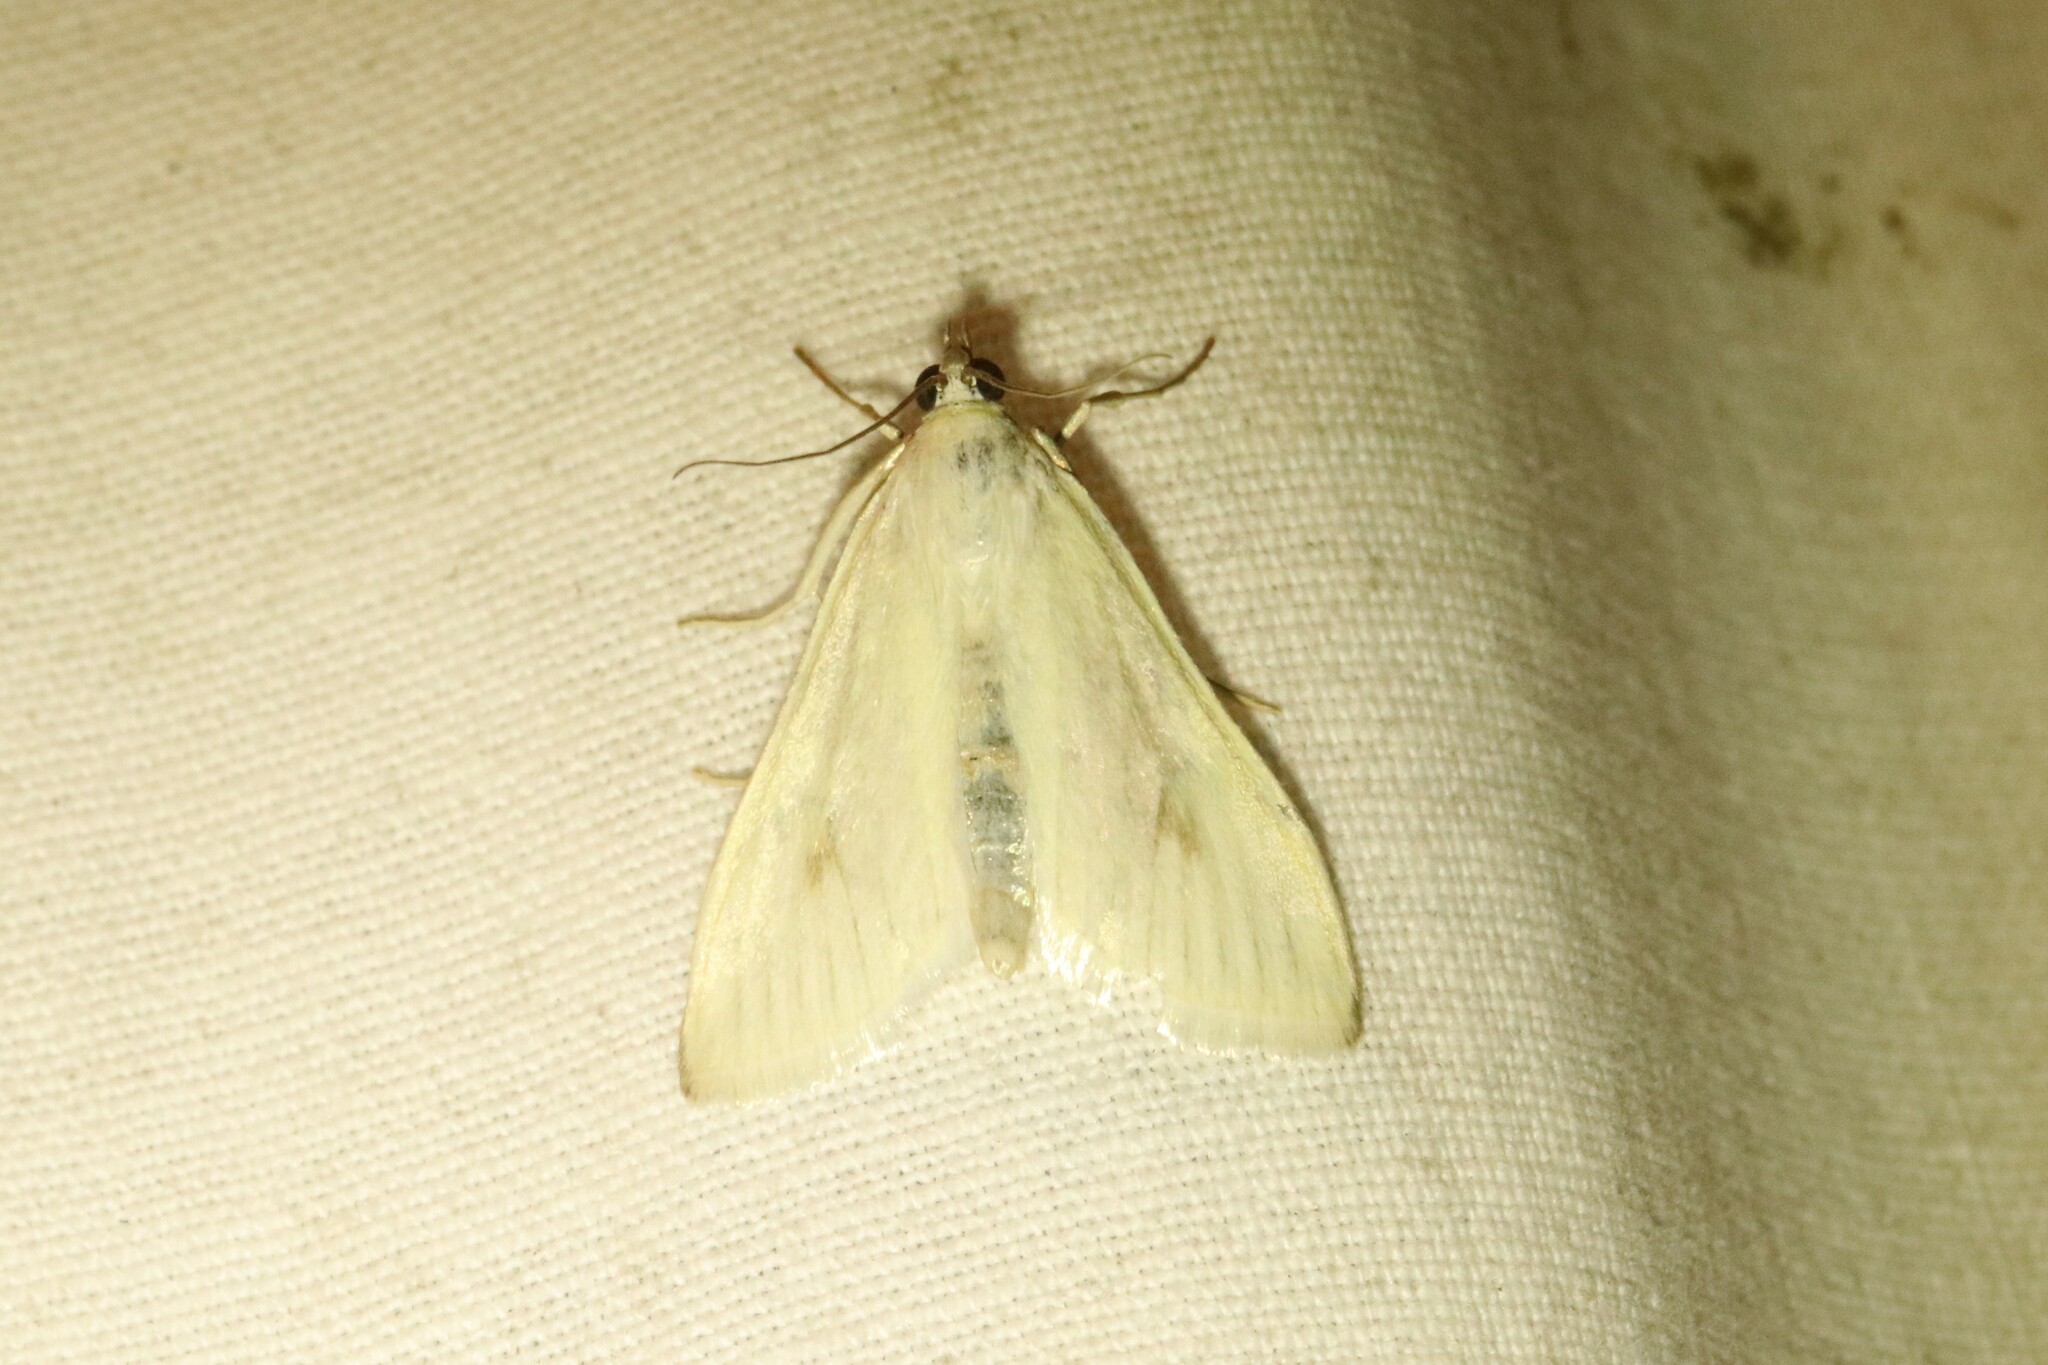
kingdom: Animalia
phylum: Arthropoda
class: Insecta
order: Lepidoptera
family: Crambidae
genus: Sitochroa
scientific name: Sitochroa palealis
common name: Greenish-yellow sitochroa moth
